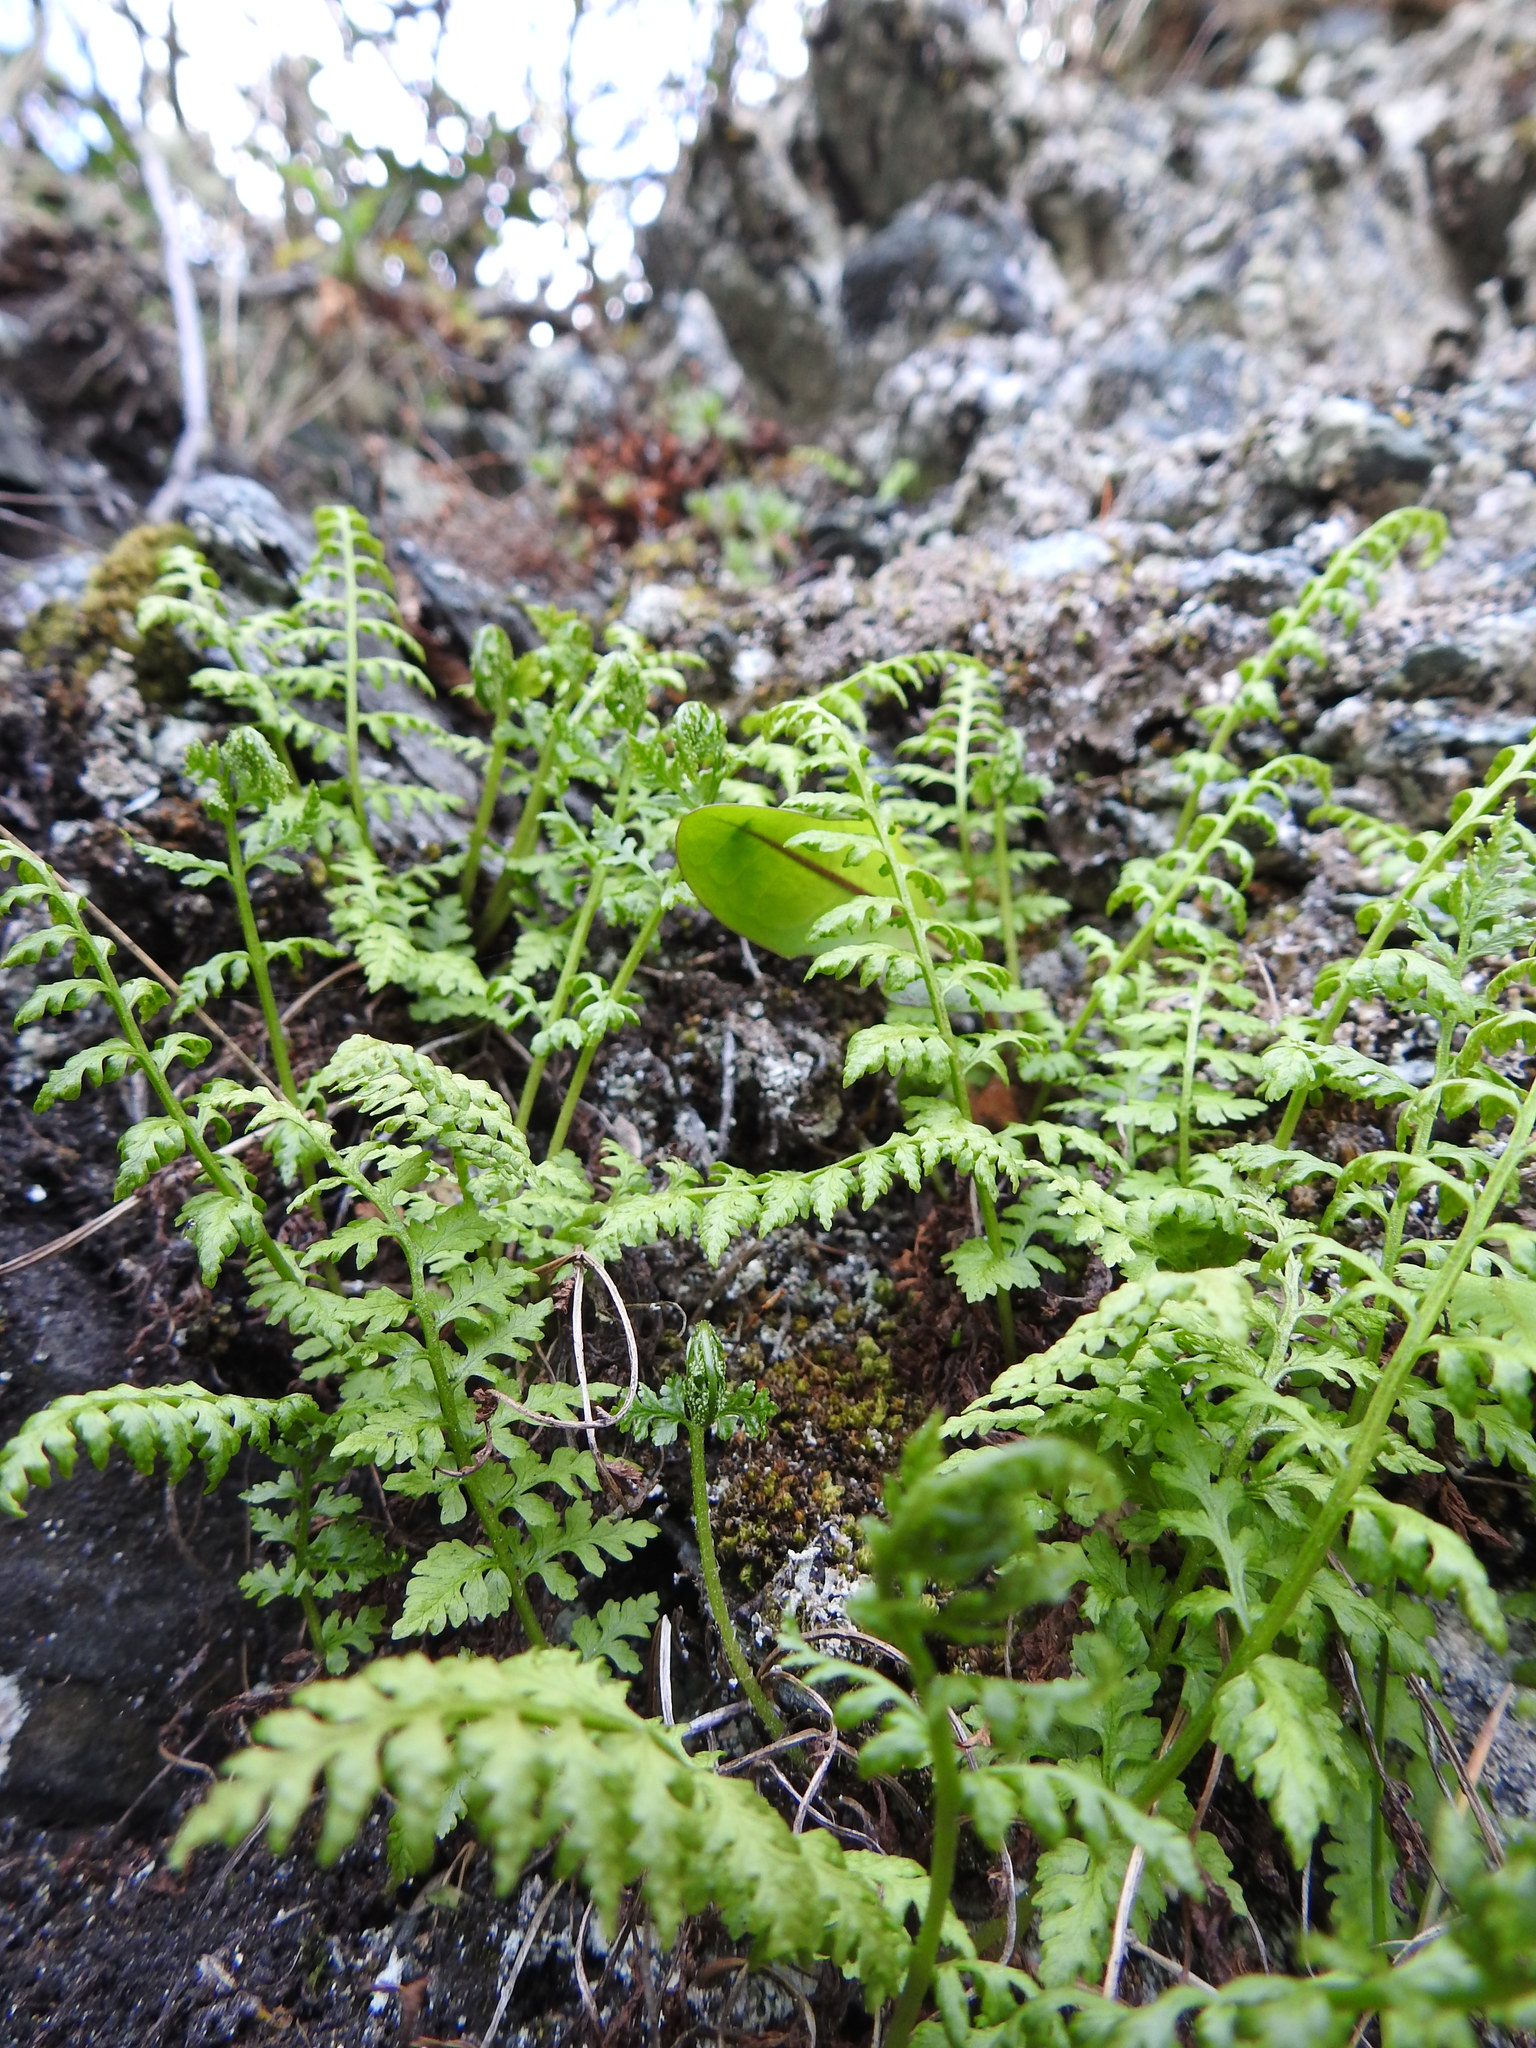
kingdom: Plantae
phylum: Tracheophyta
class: Polypodiopsida
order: Polypodiales
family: Cystopteridaceae
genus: Cystopteris
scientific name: Cystopteris fragilis
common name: Brittle bladder fern
